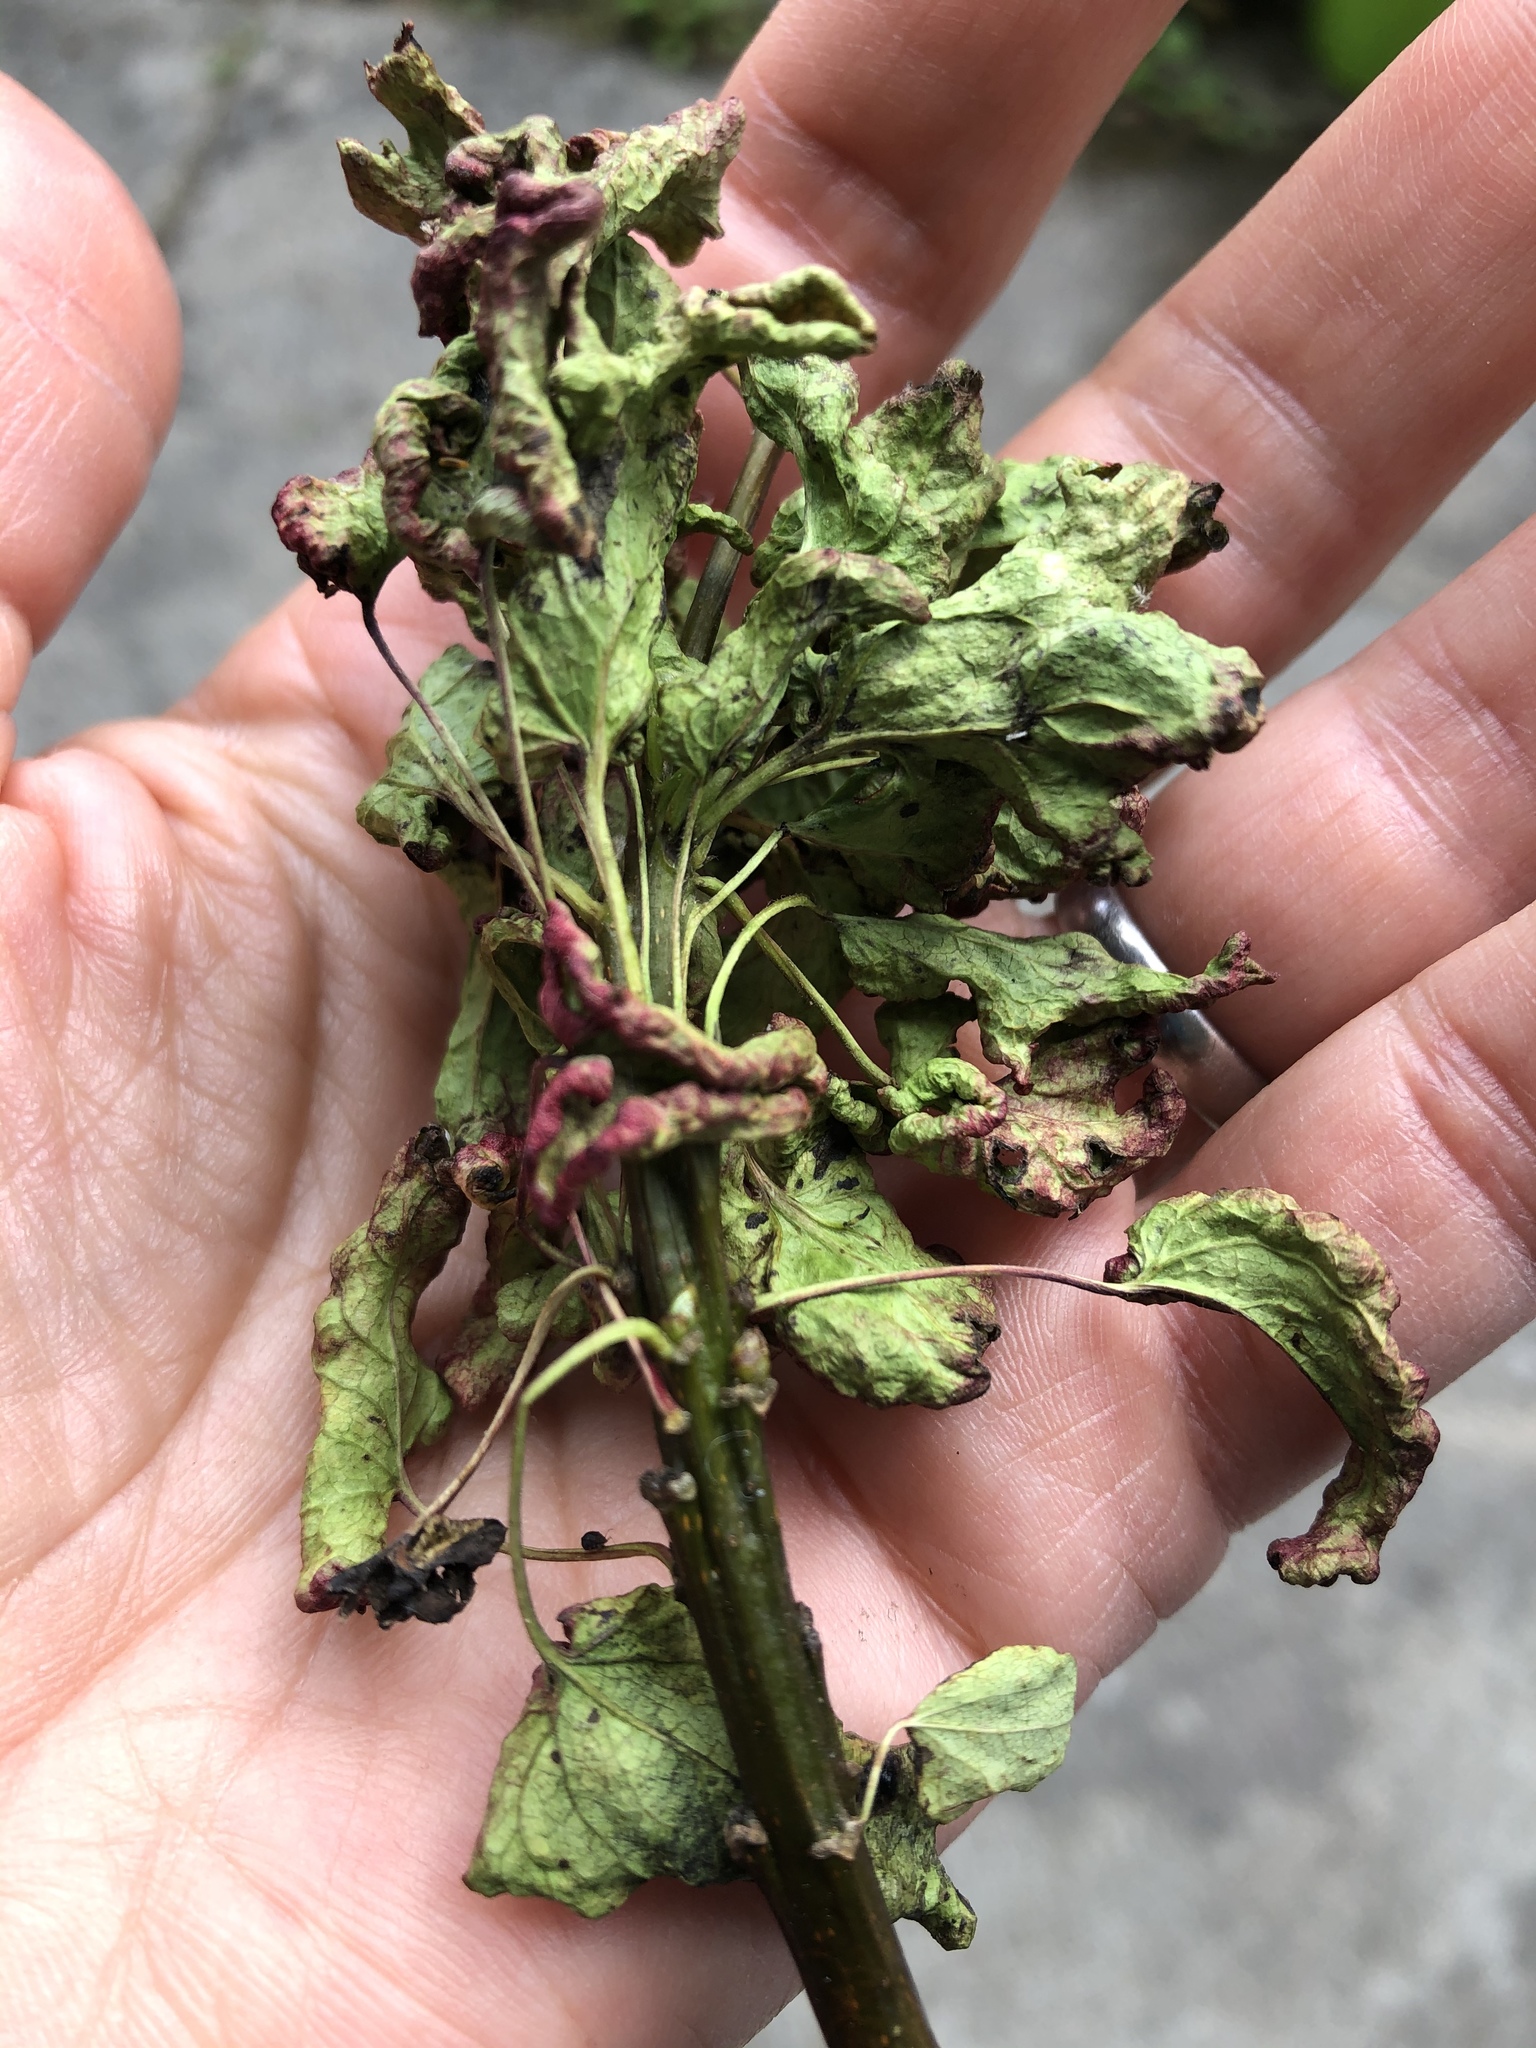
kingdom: Animalia
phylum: Arthropoda
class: Arachnida
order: Trombidiformes
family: Eriophyidae
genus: Aceria
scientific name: Aceria dispar
